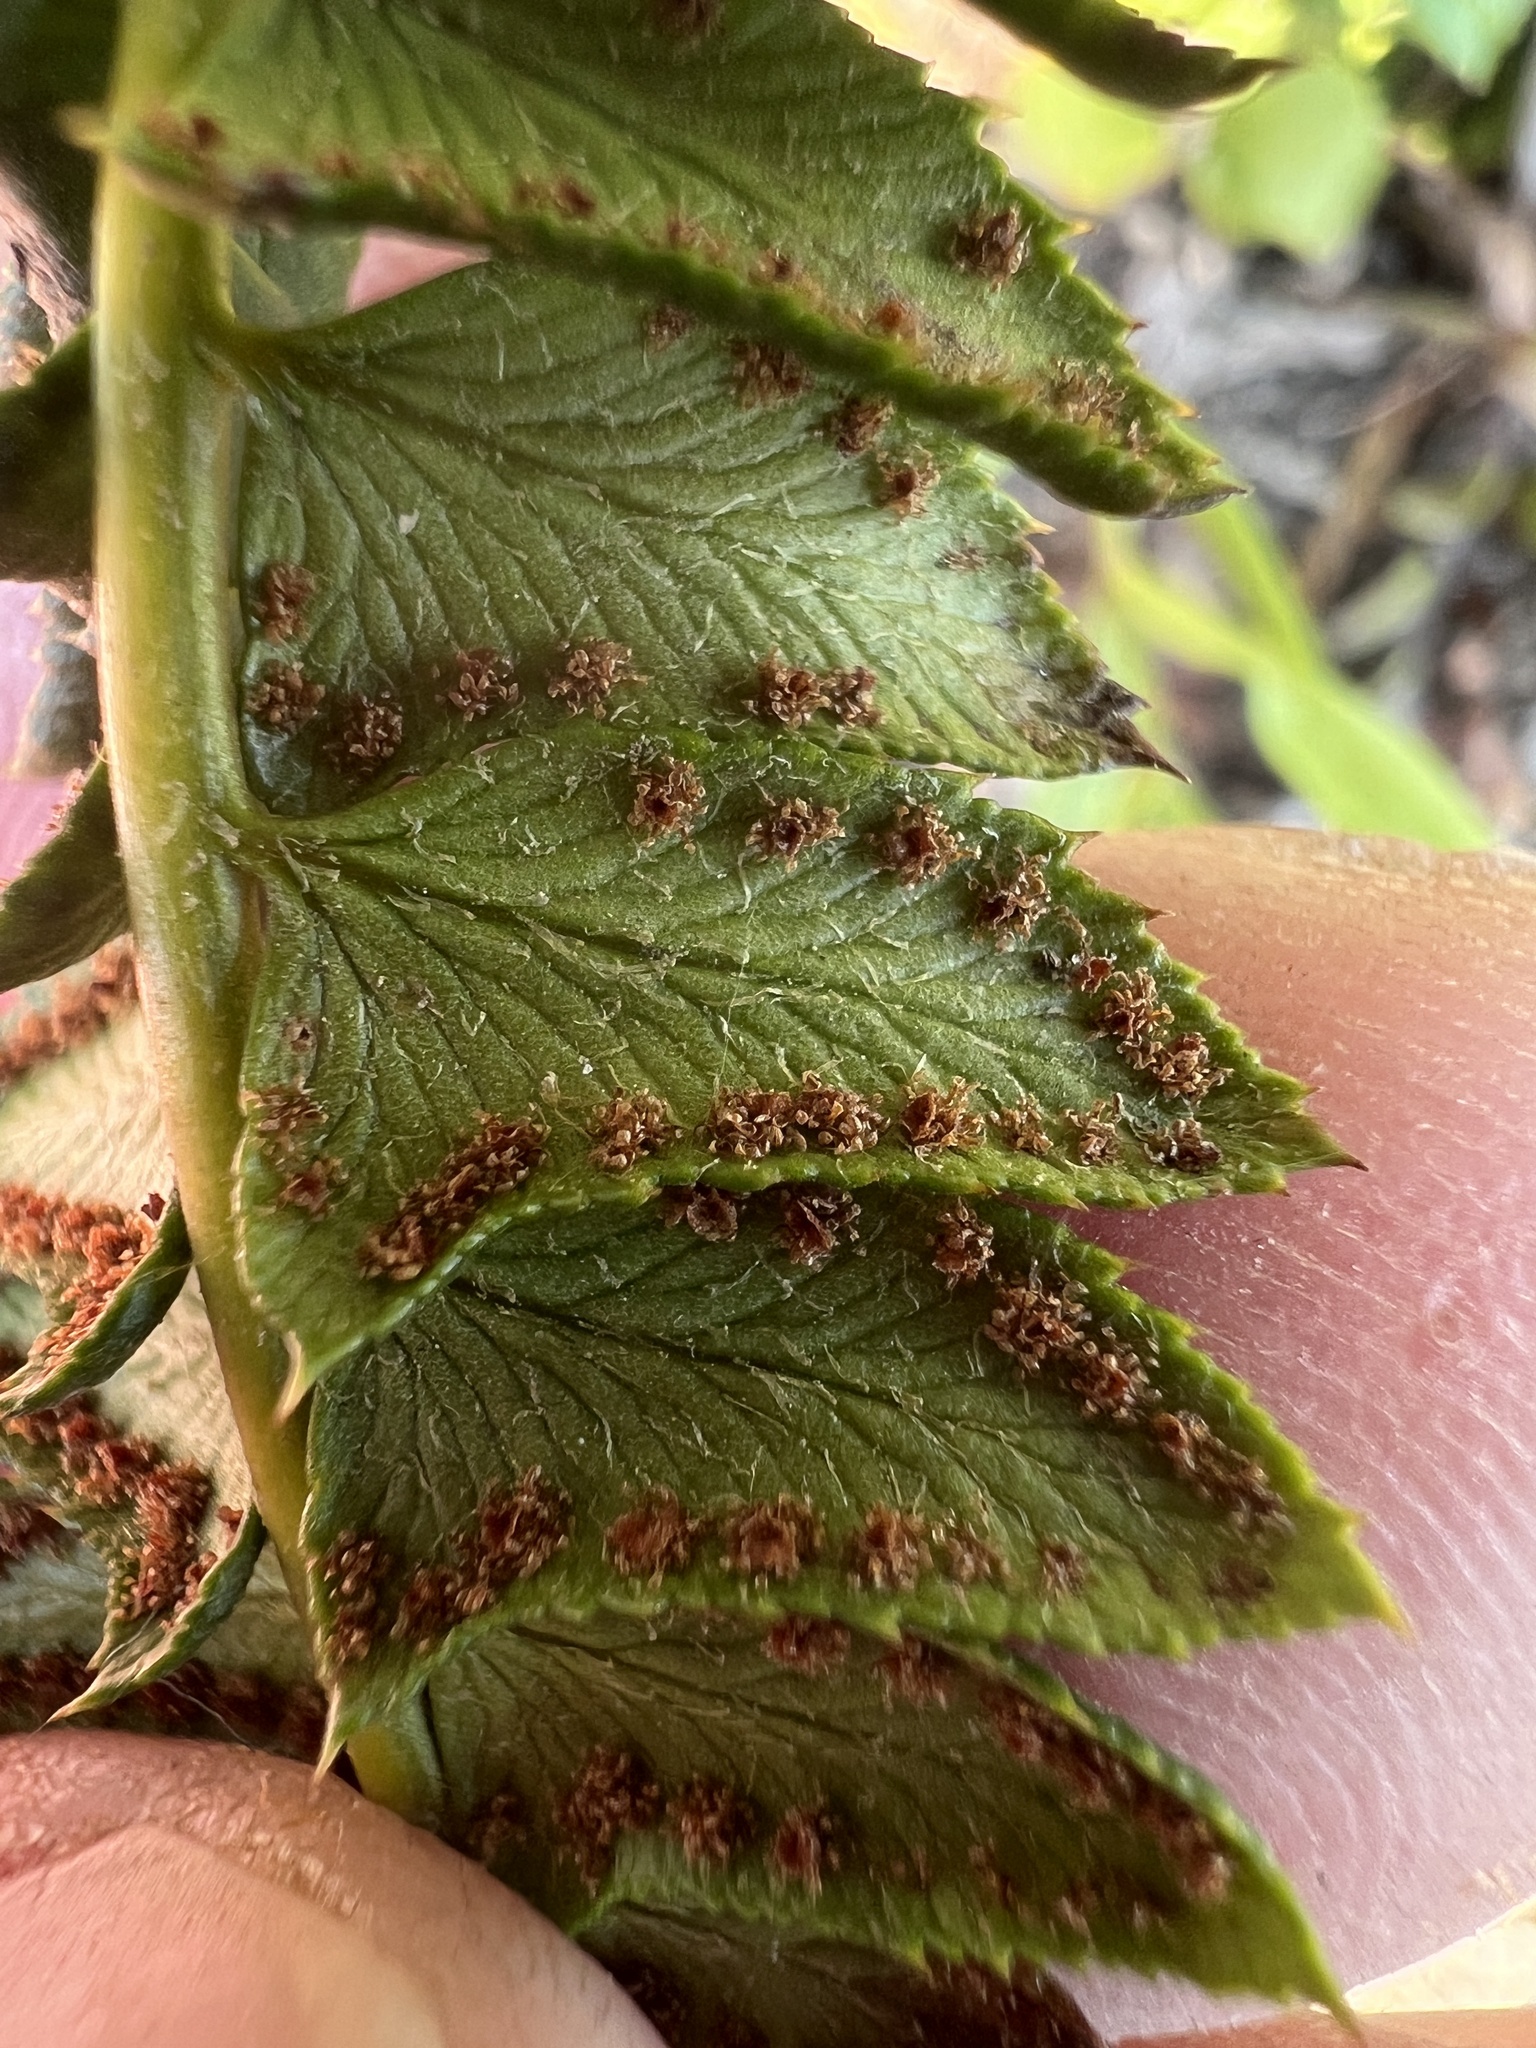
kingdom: Plantae
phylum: Tracheophyta
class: Polypodiopsida
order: Polypodiales
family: Dryopteridaceae
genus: Polystichum
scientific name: Polystichum lonchitis
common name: Holly fern
